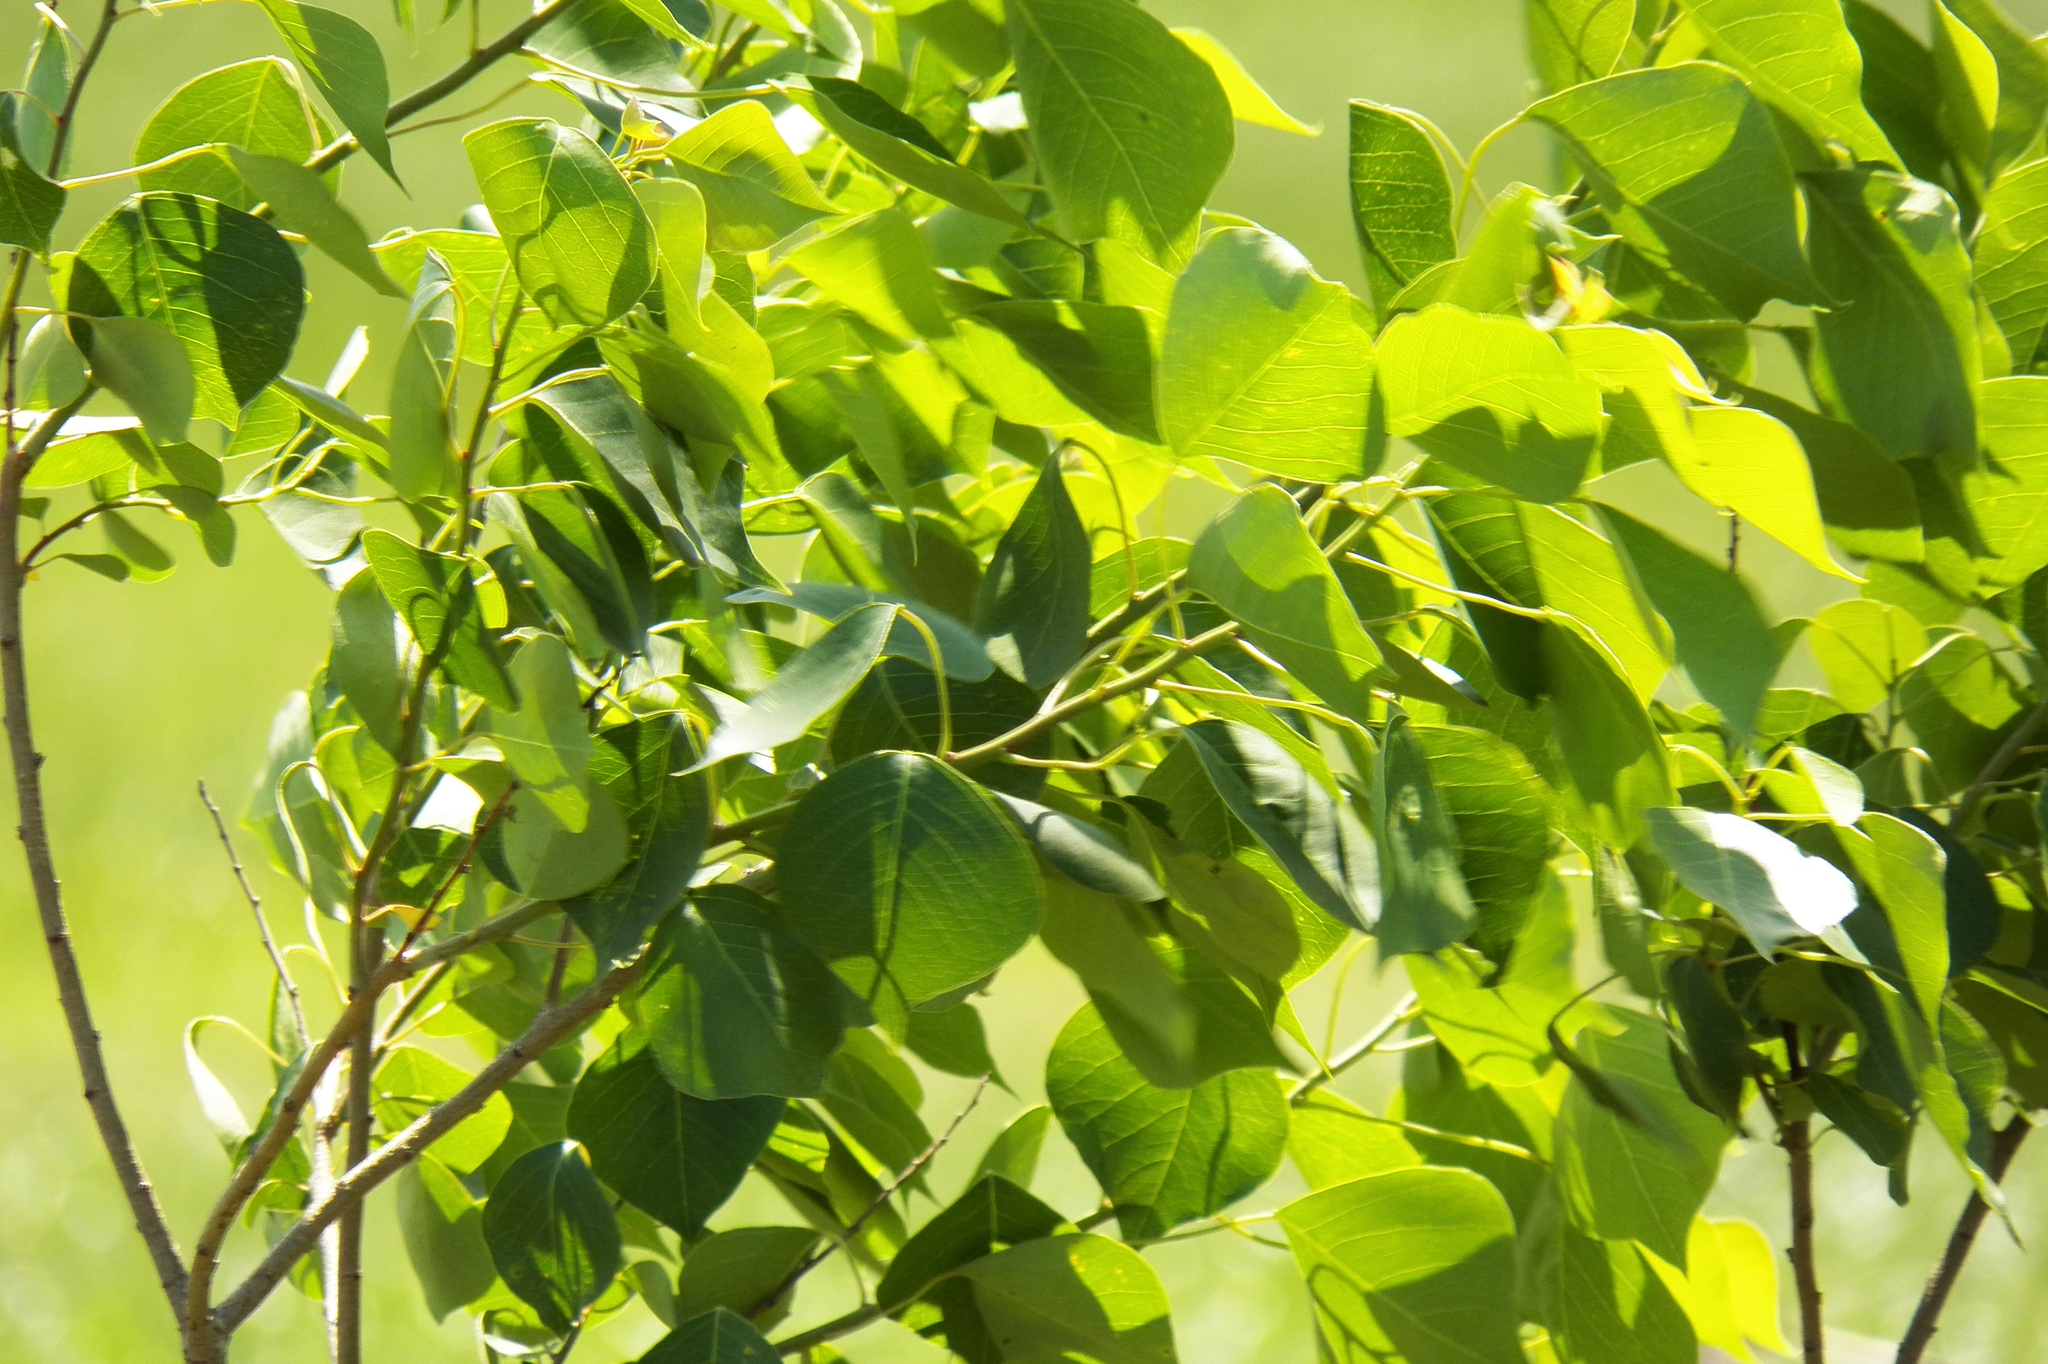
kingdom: Plantae
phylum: Tracheophyta
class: Magnoliopsida
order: Malpighiales
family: Euphorbiaceae
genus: Triadica
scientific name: Triadica sebifera
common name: Chinese tallow
